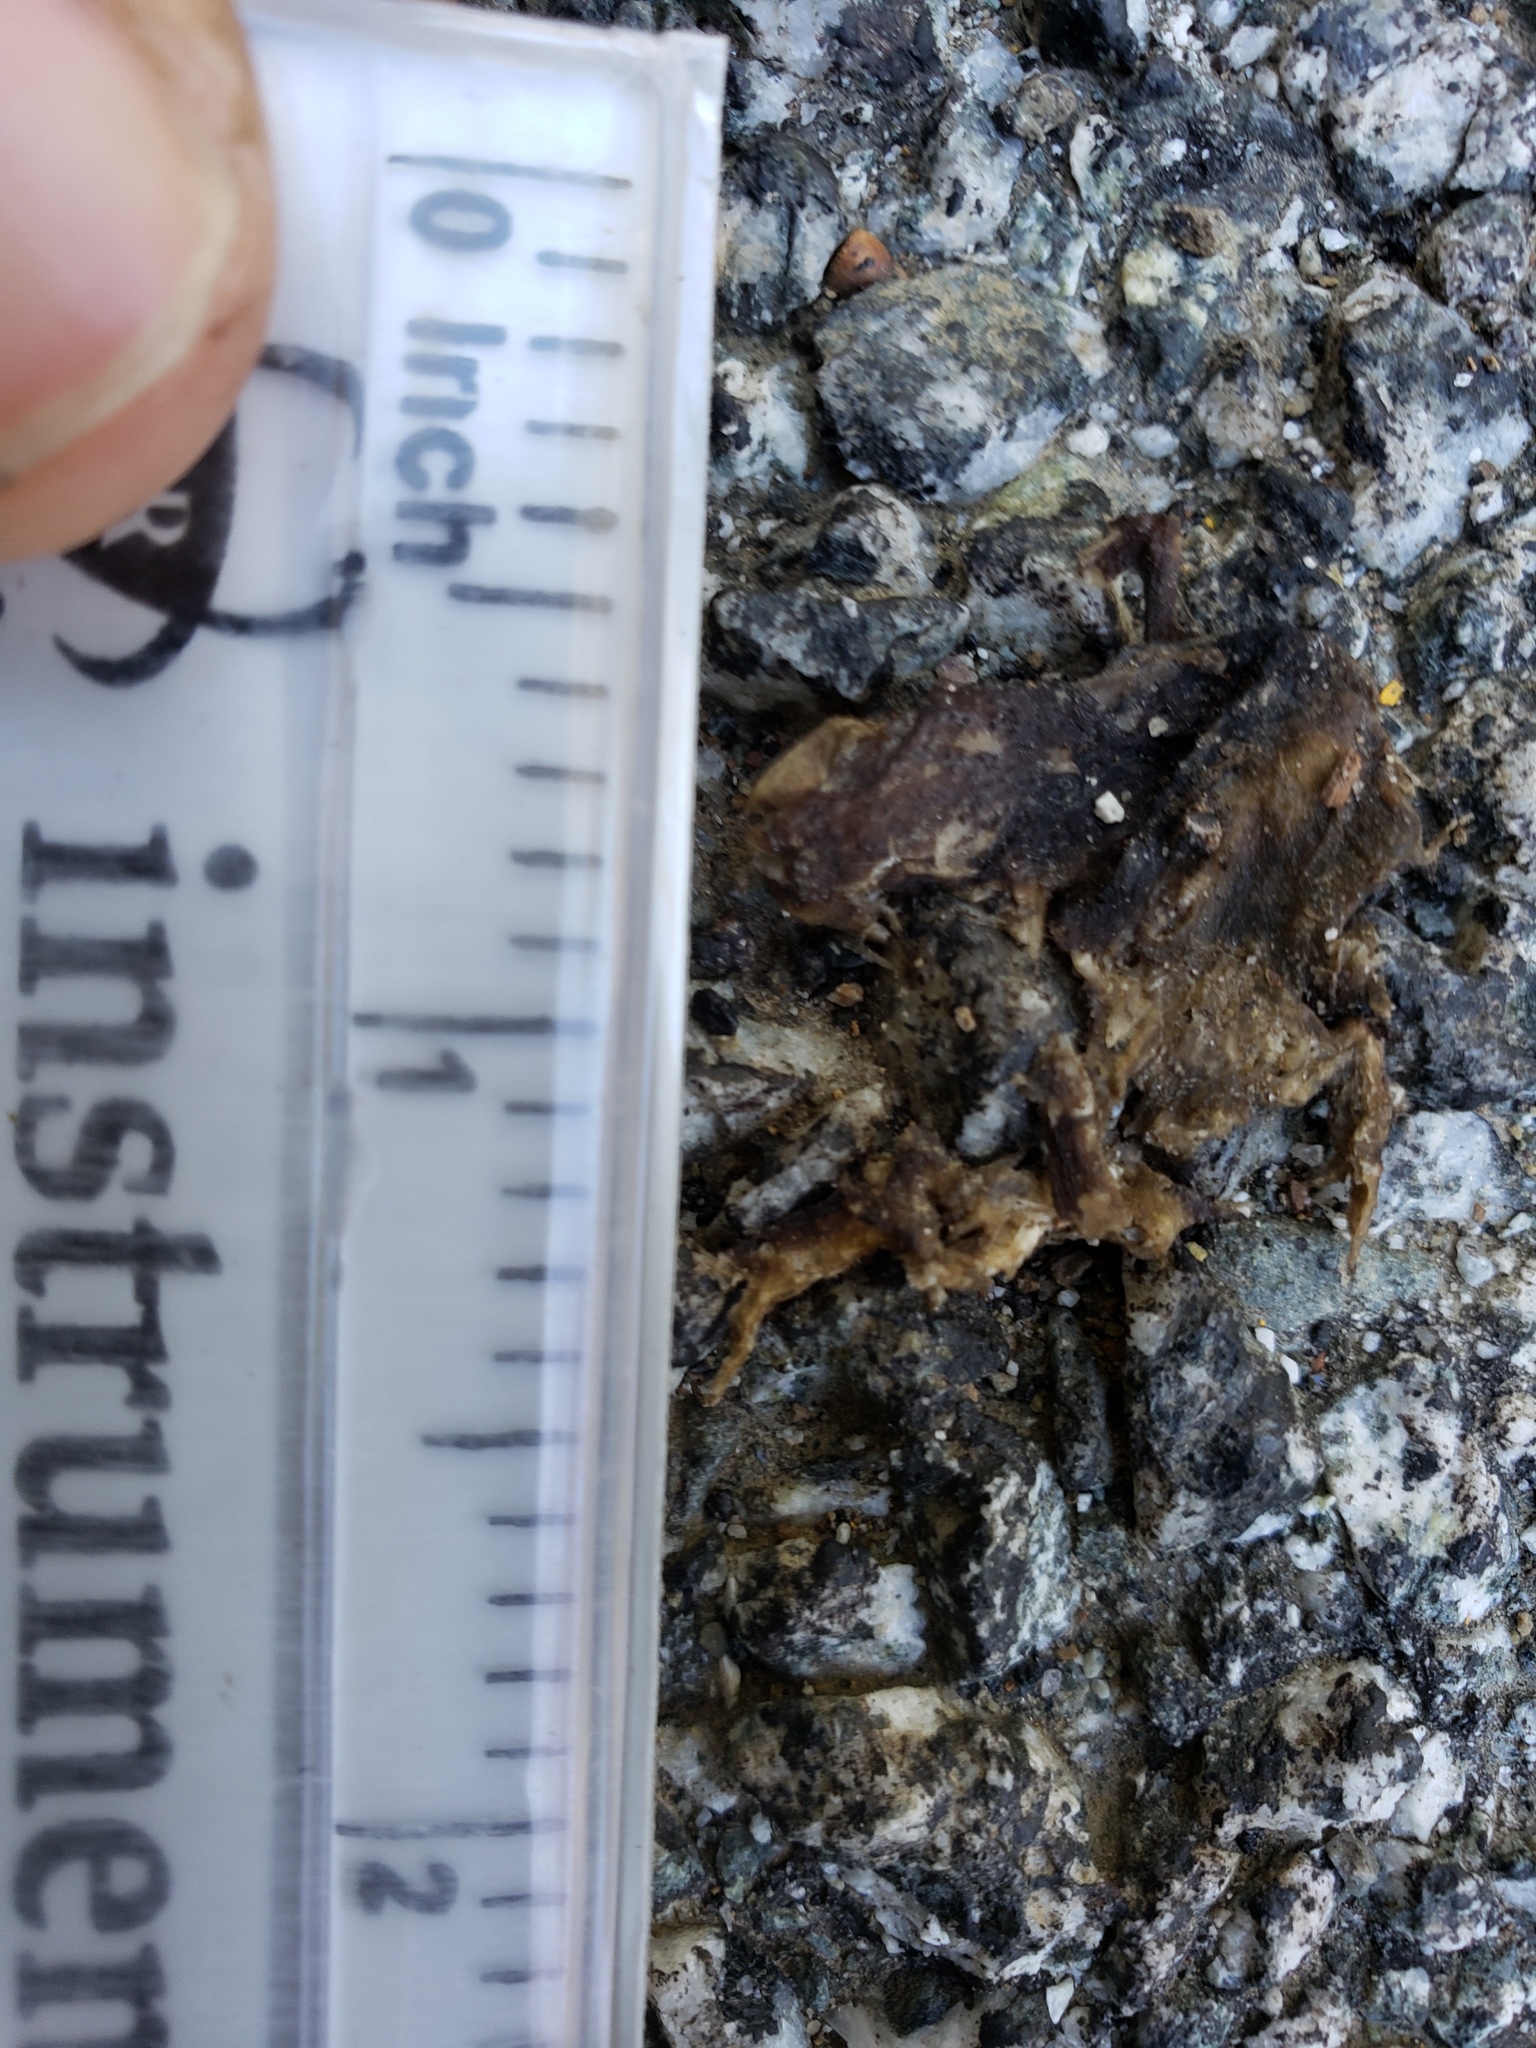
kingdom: Animalia
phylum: Chordata
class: Amphibia
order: Caudata
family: Salamandridae
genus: Taricha
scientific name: Taricha
